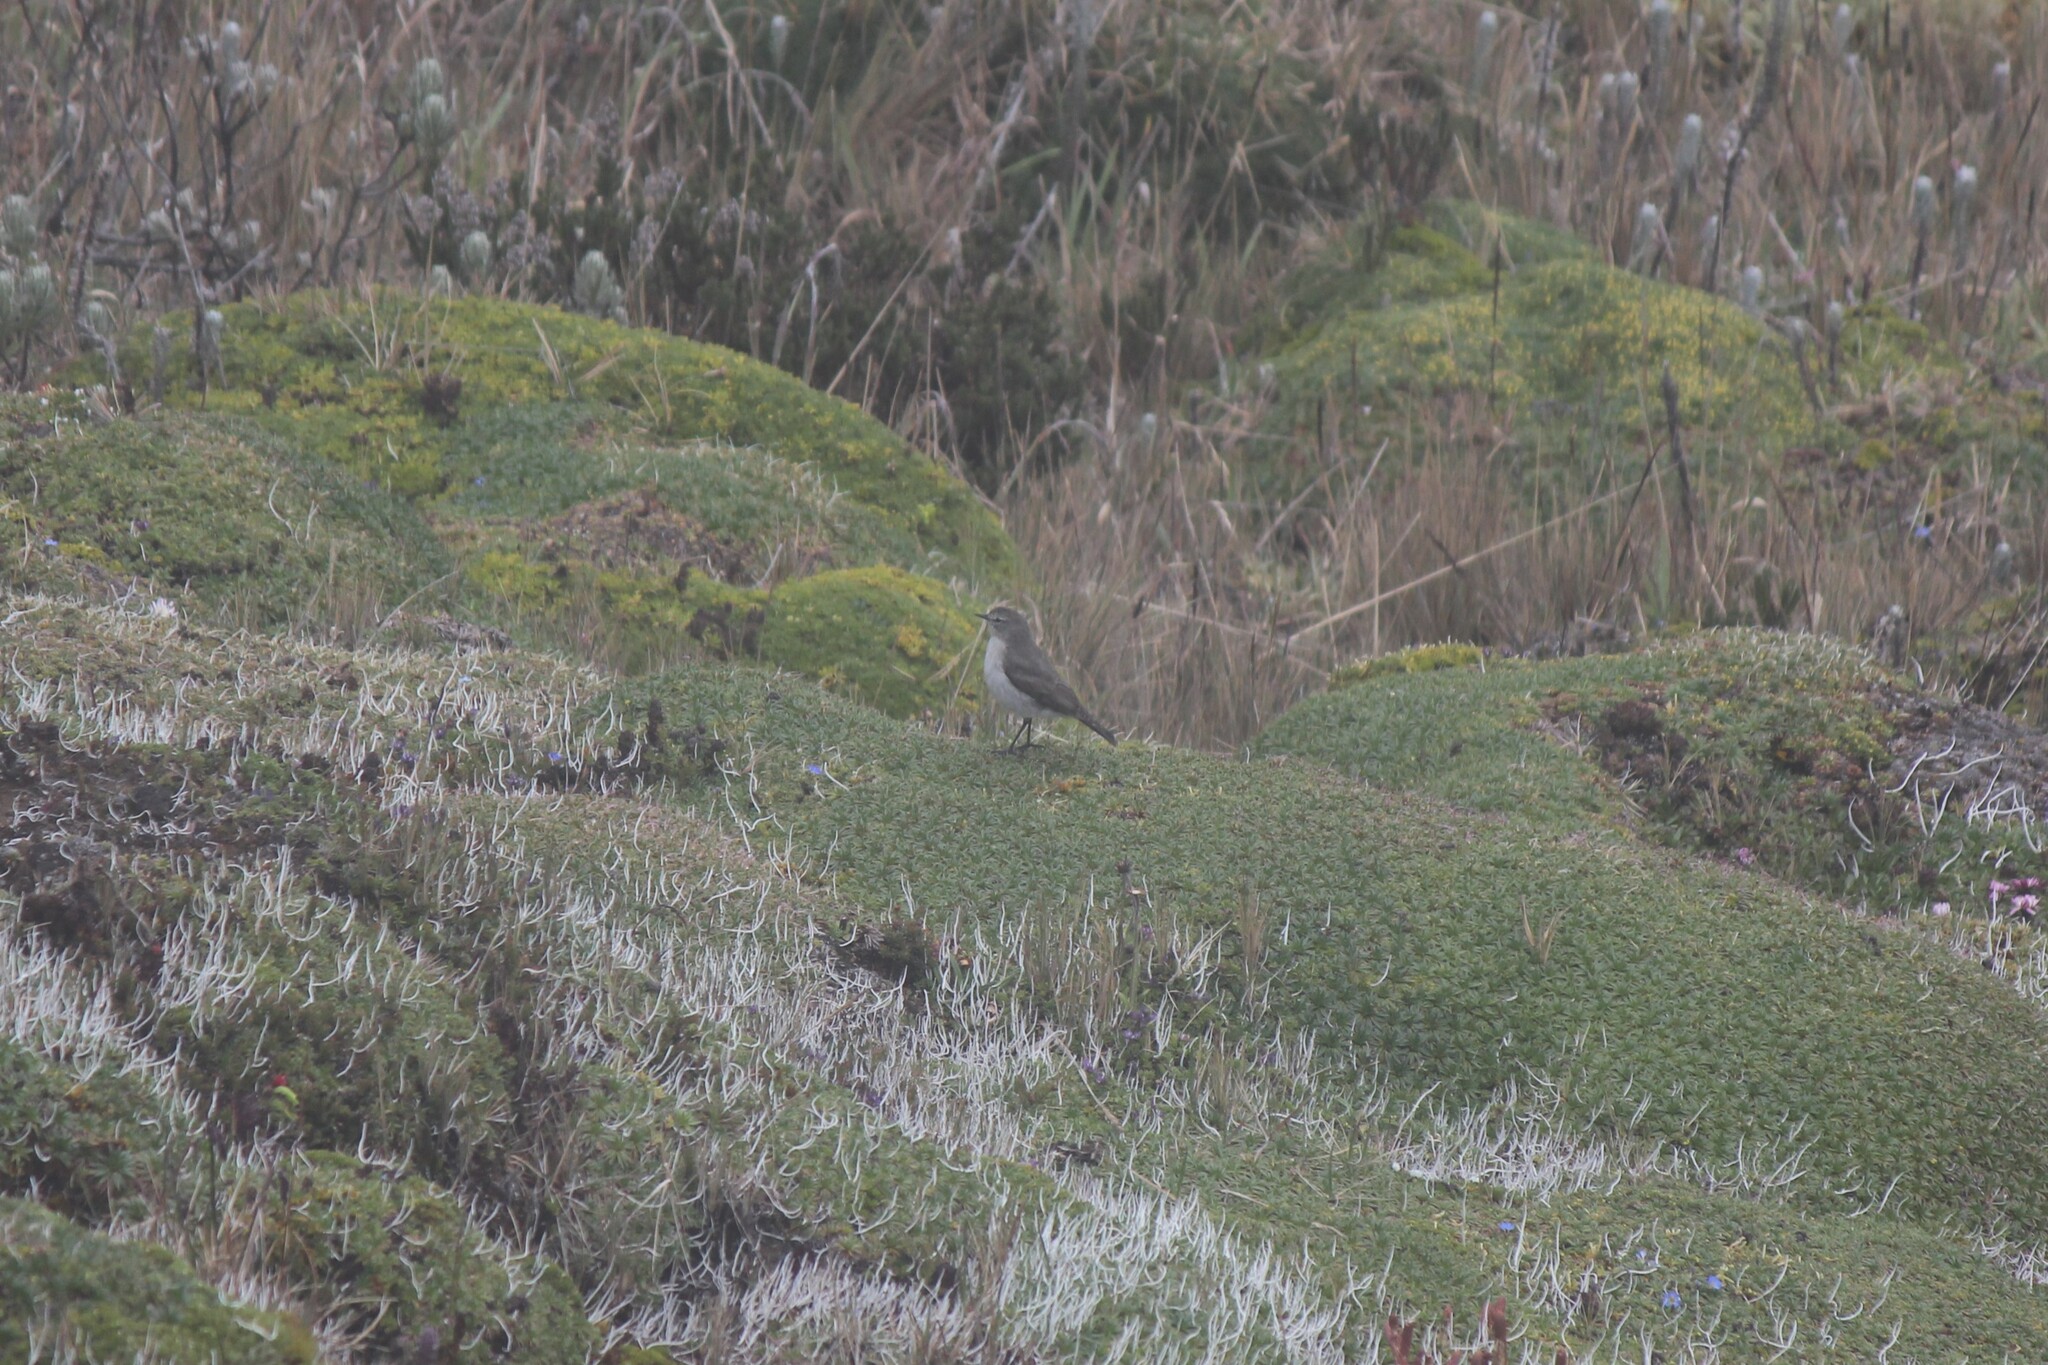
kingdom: Animalia
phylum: Chordata
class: Aves
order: Passeriformes
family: Tyrannidae
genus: Muscisaxicola
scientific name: Muscisaxicola alpinus
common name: Paramo ground tyrant
